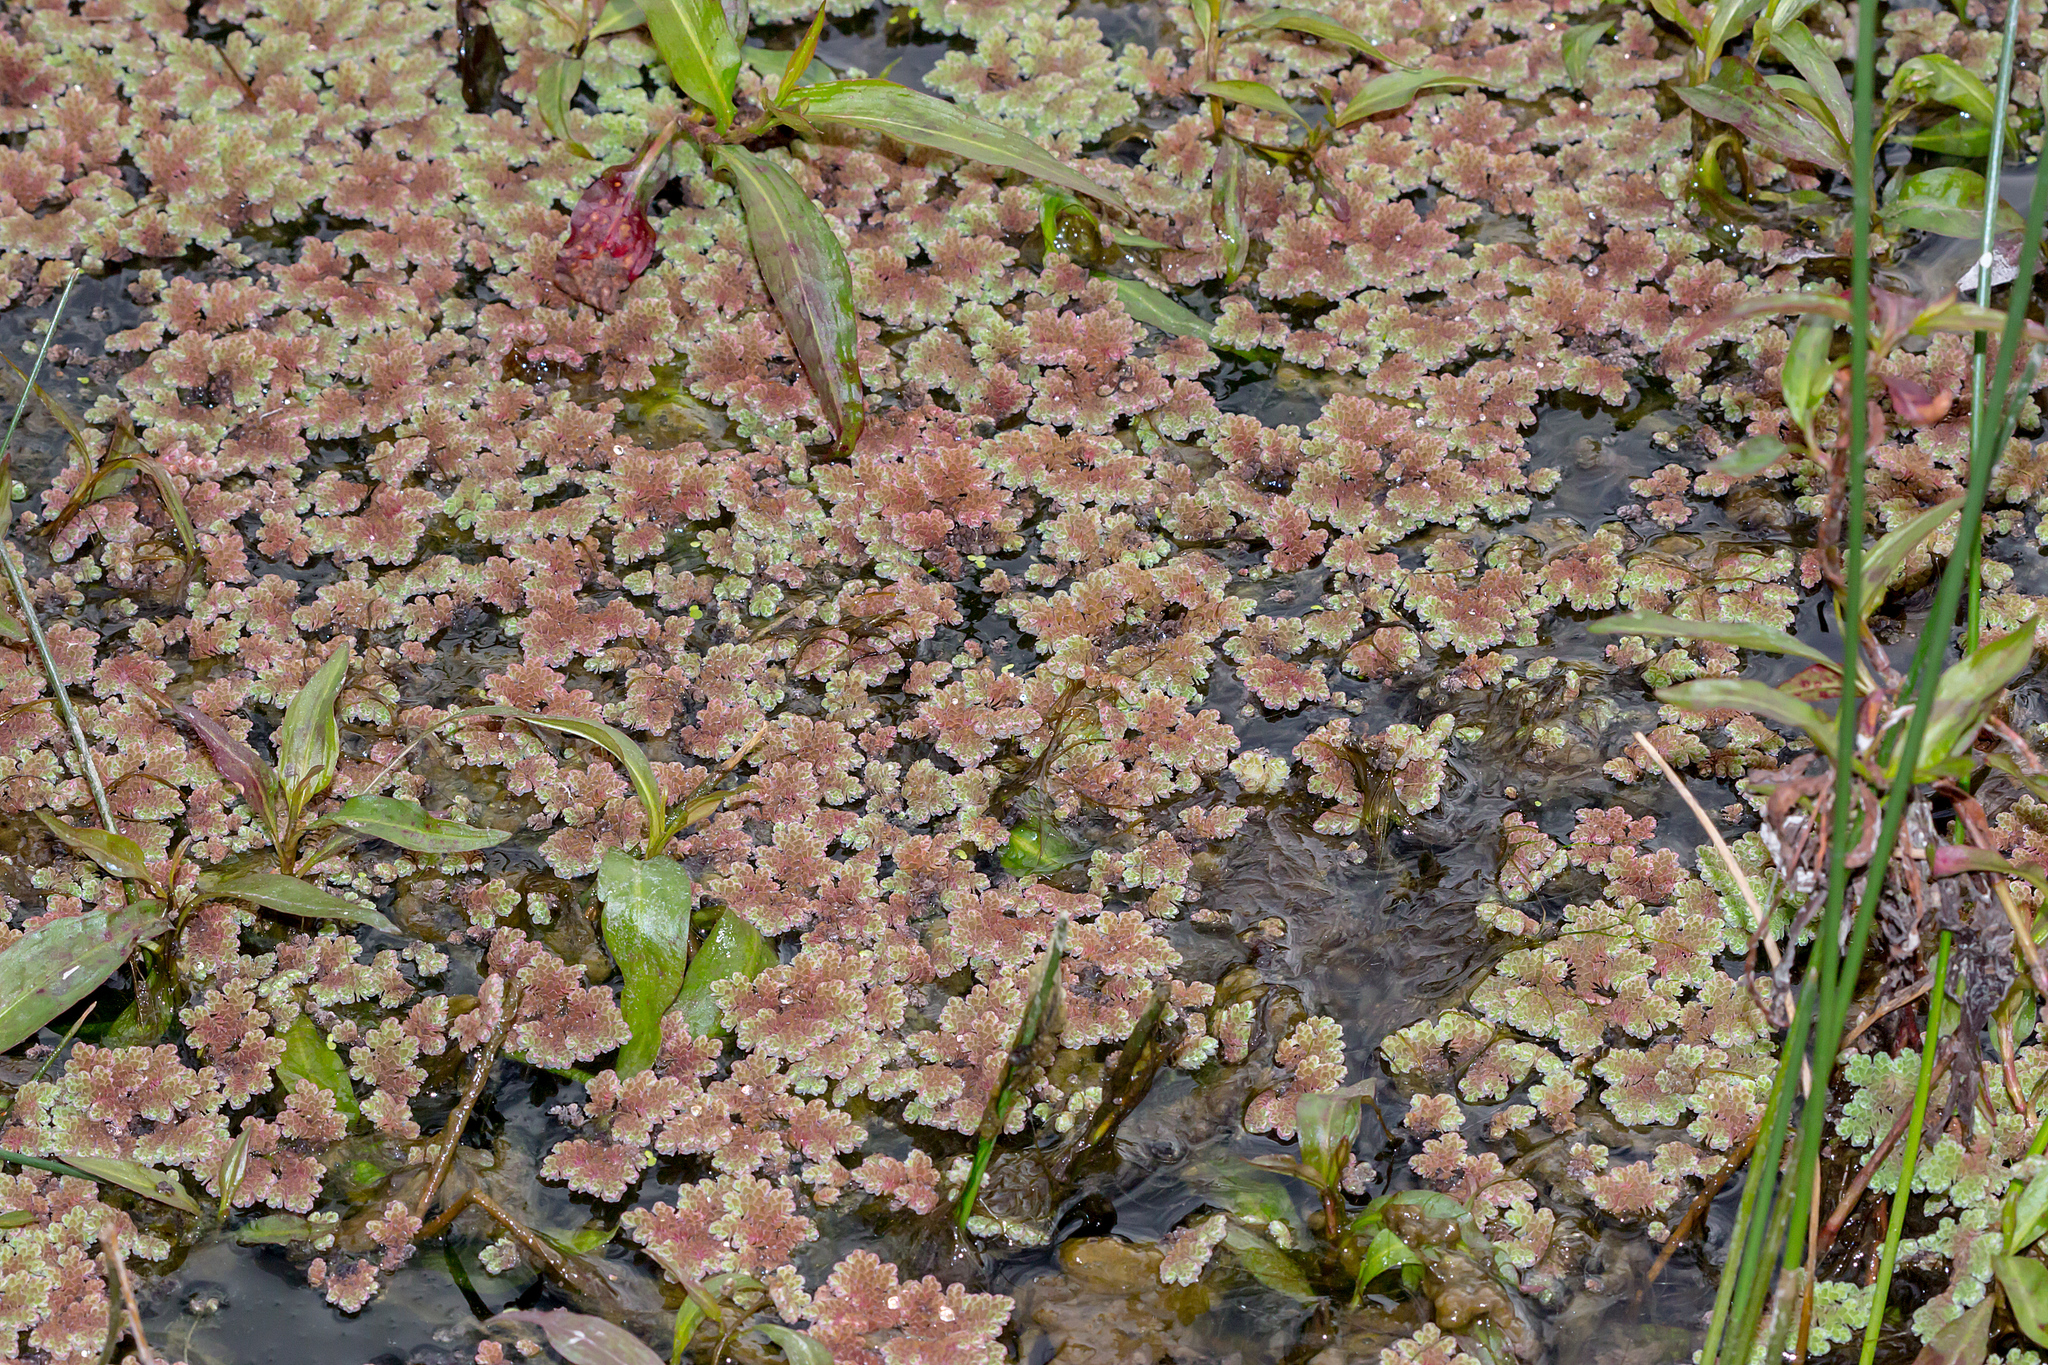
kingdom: Plantae
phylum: Tracheophyta
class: Polypodiopsida
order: Salviniales
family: Salviniaceae
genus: Azolla
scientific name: Azolla rubra
